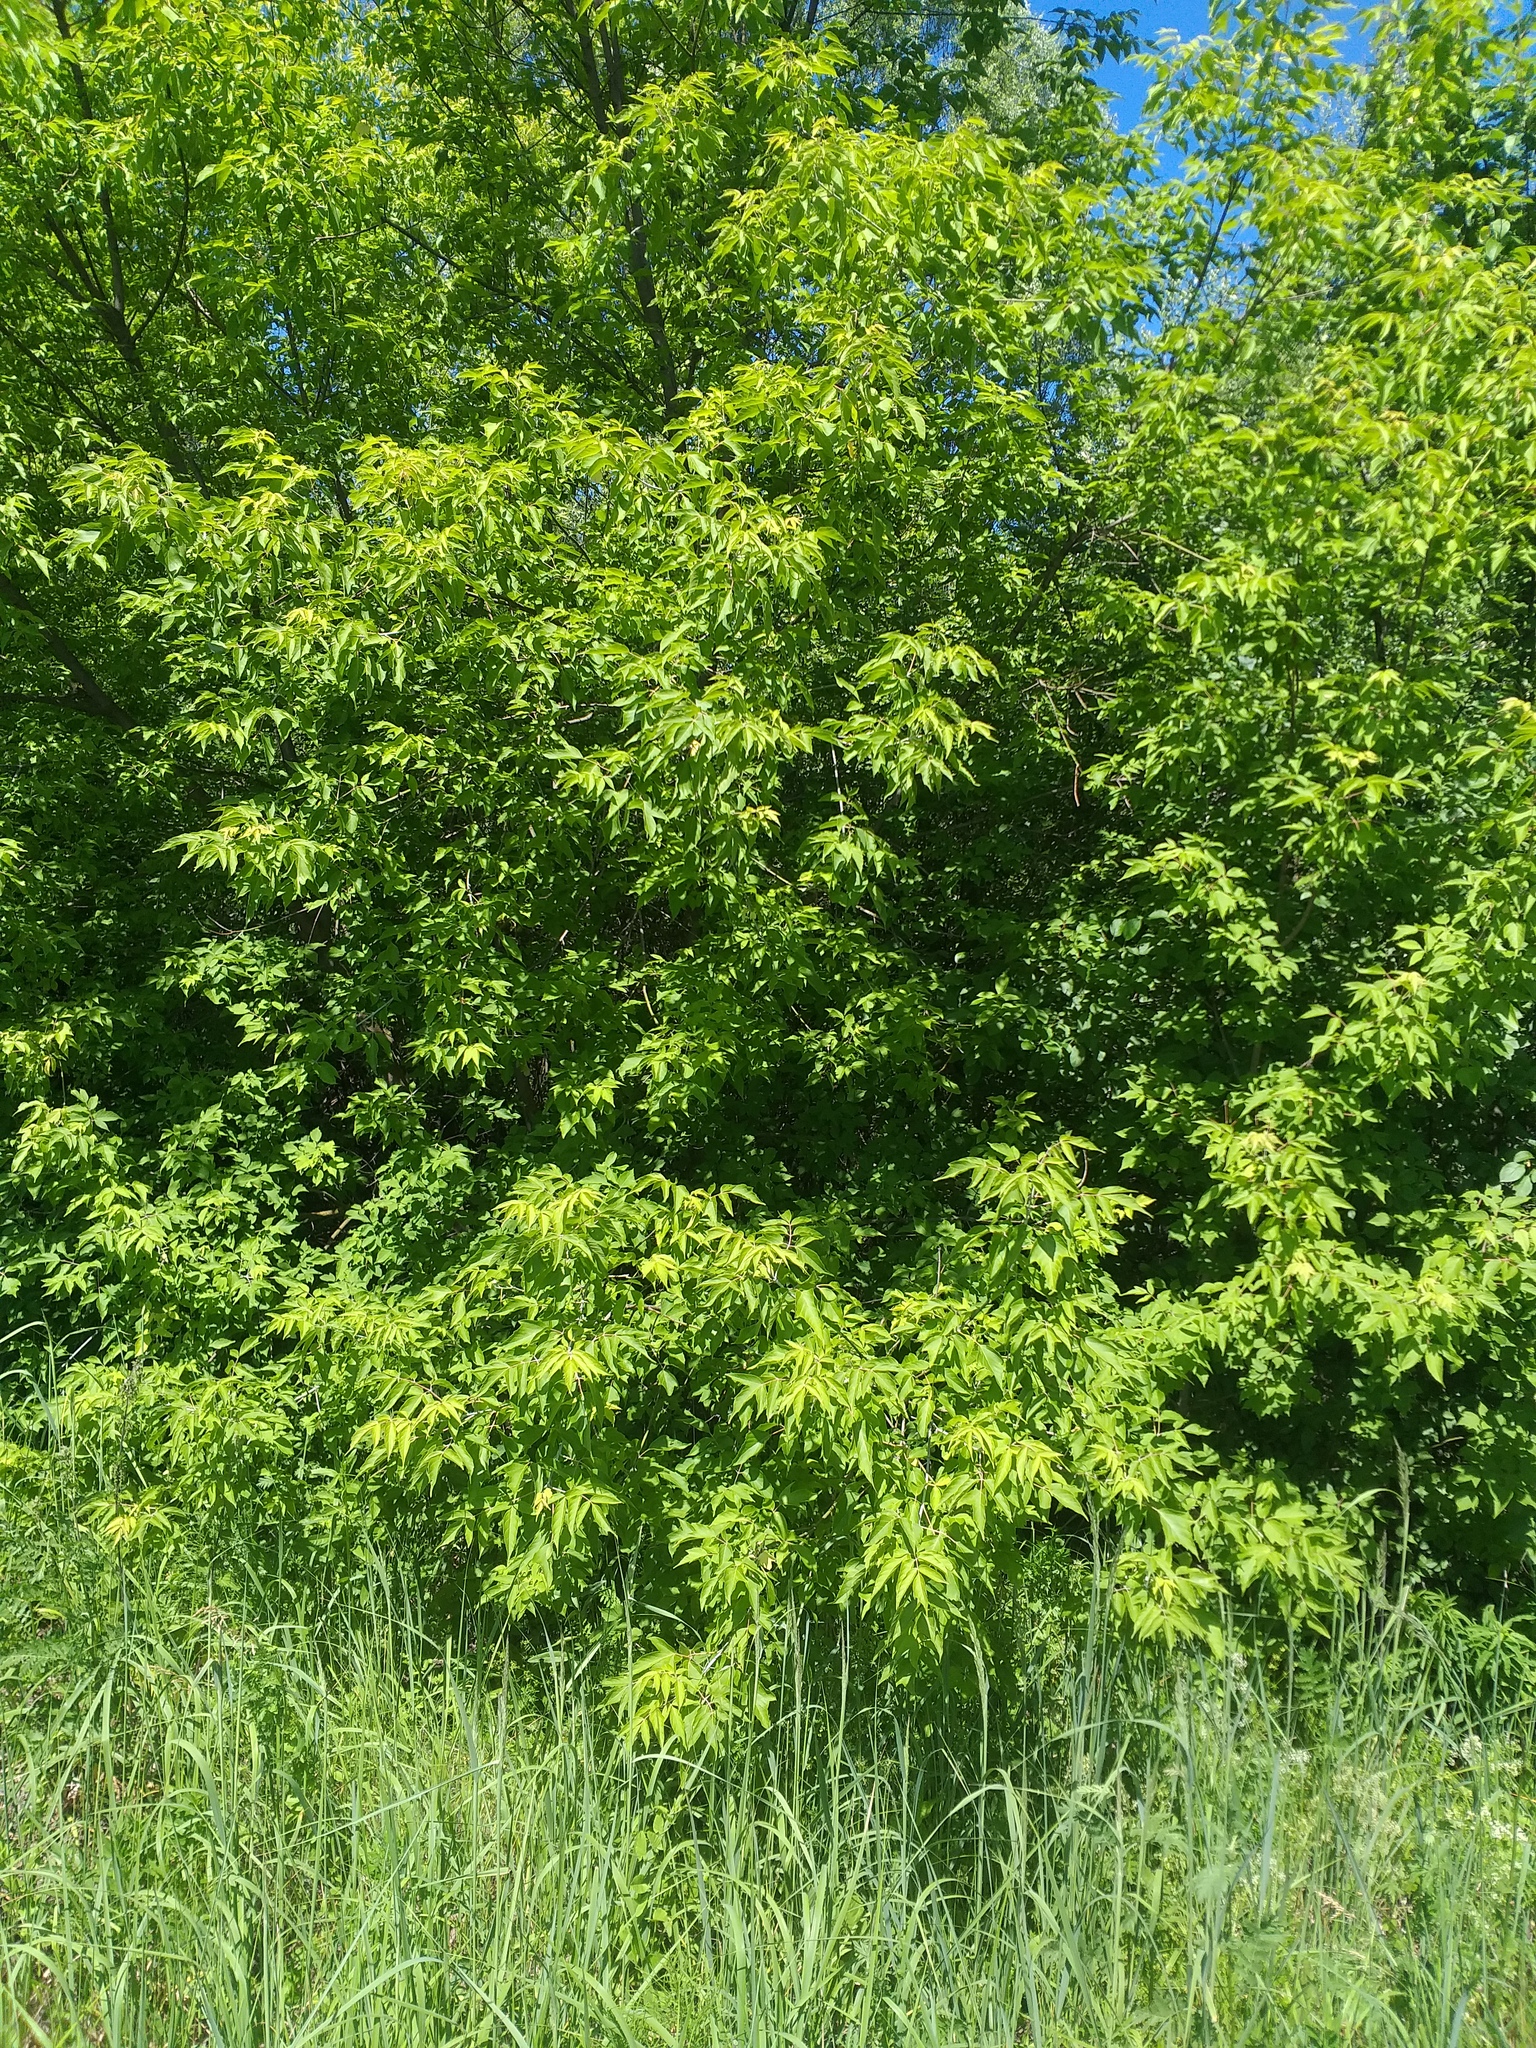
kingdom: Plantae
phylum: Tracheophyta
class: Magnoliopsida
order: Sapindales
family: Sapindaceae
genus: Acer
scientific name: Acer negundo
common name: Ashleaf maple
